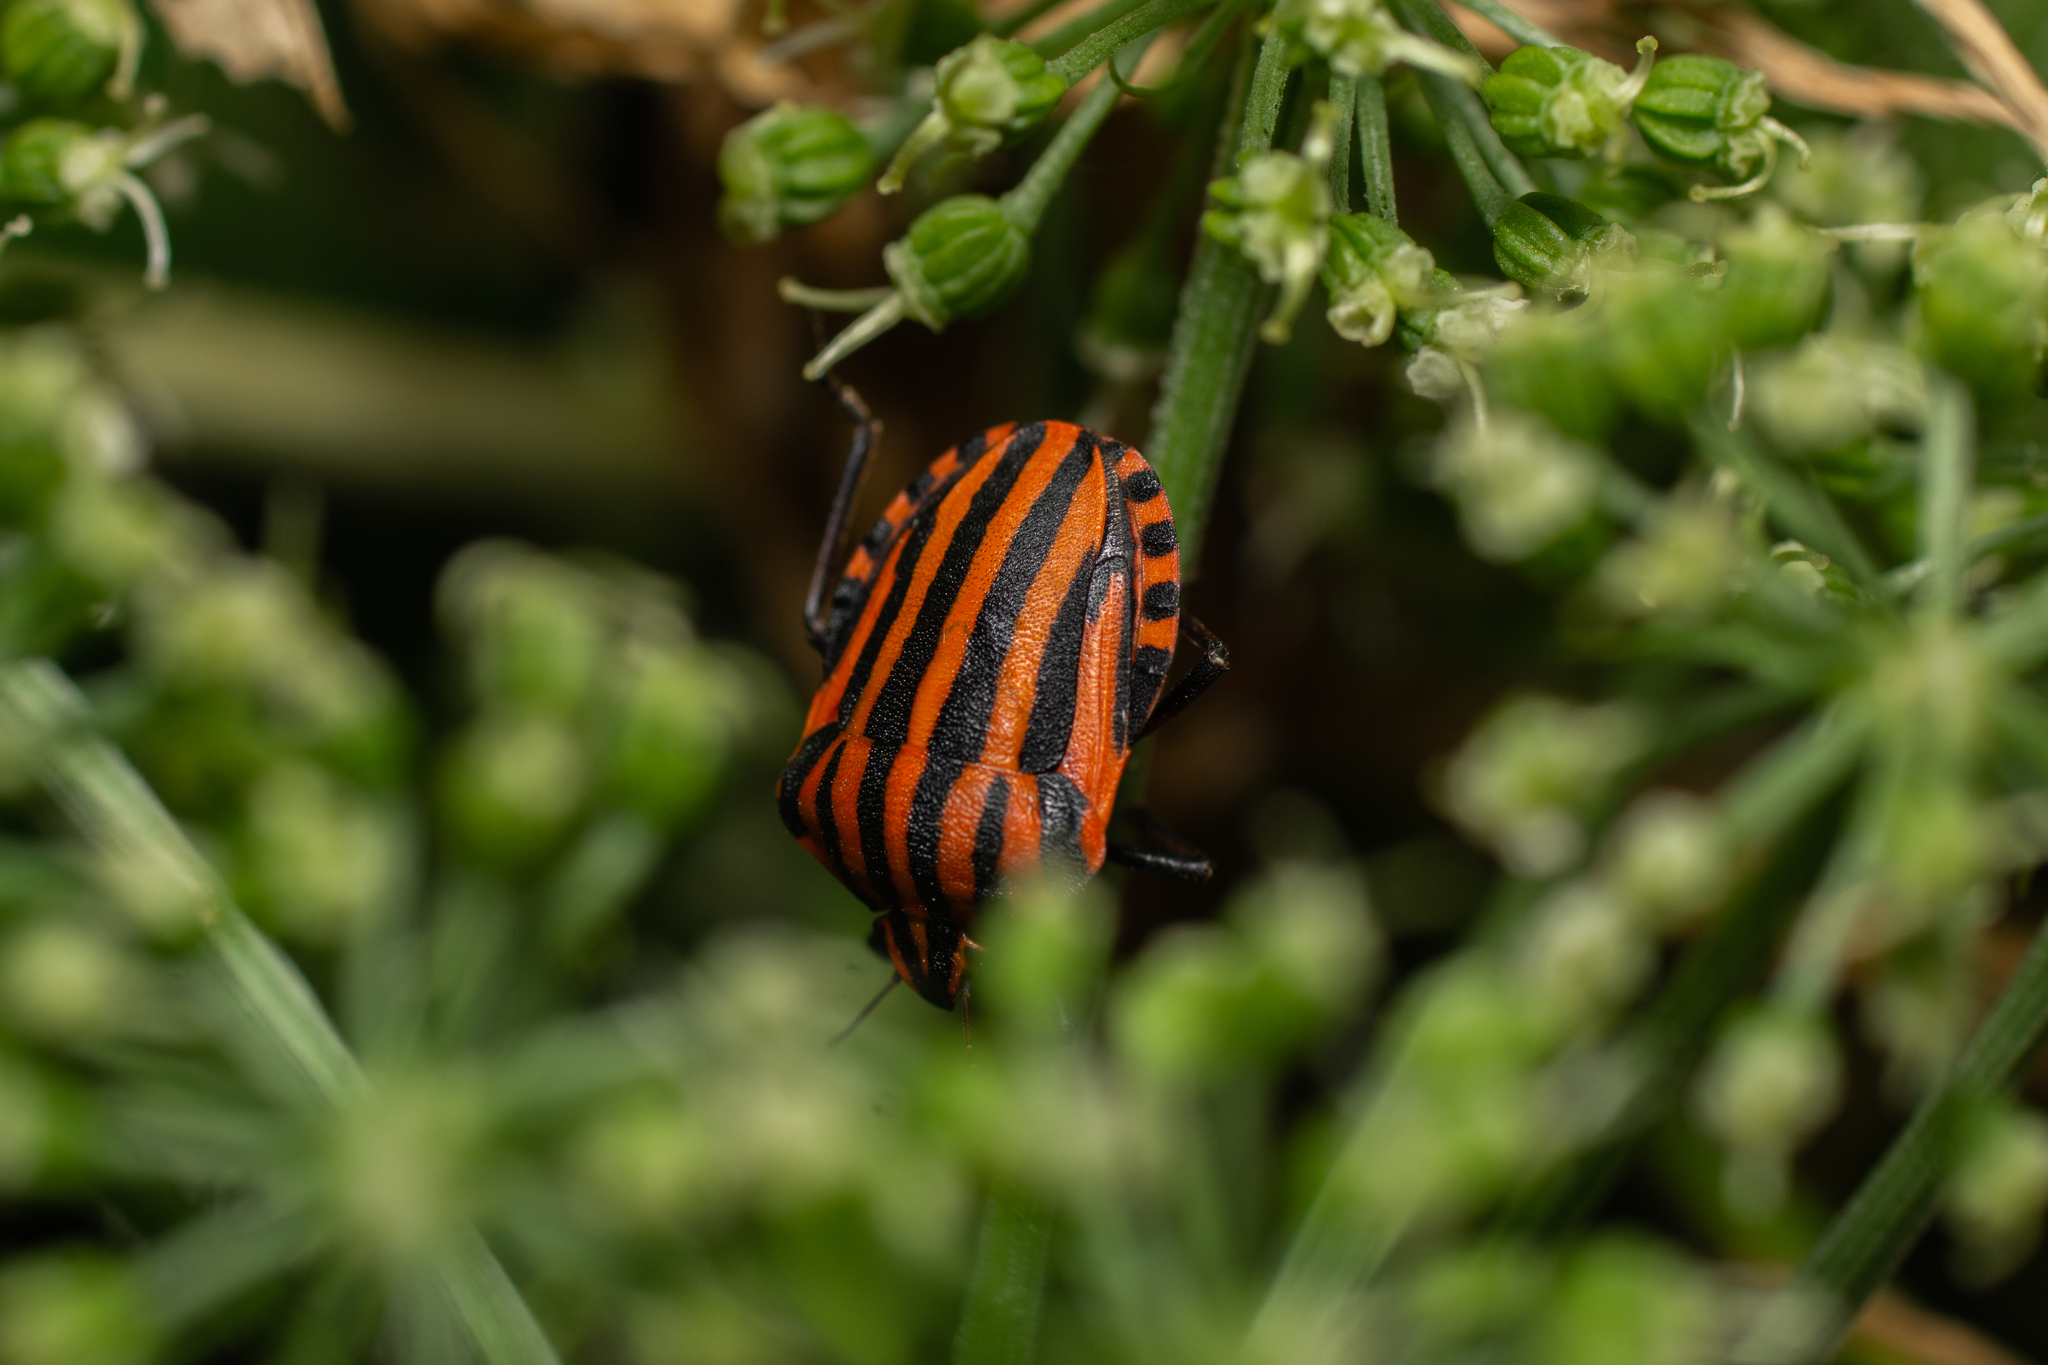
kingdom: Animalia
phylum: Arthropoda
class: Insecta
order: Hemiptera
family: Pentatomidae
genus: Graphosoma
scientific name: Graphosoma italicum
